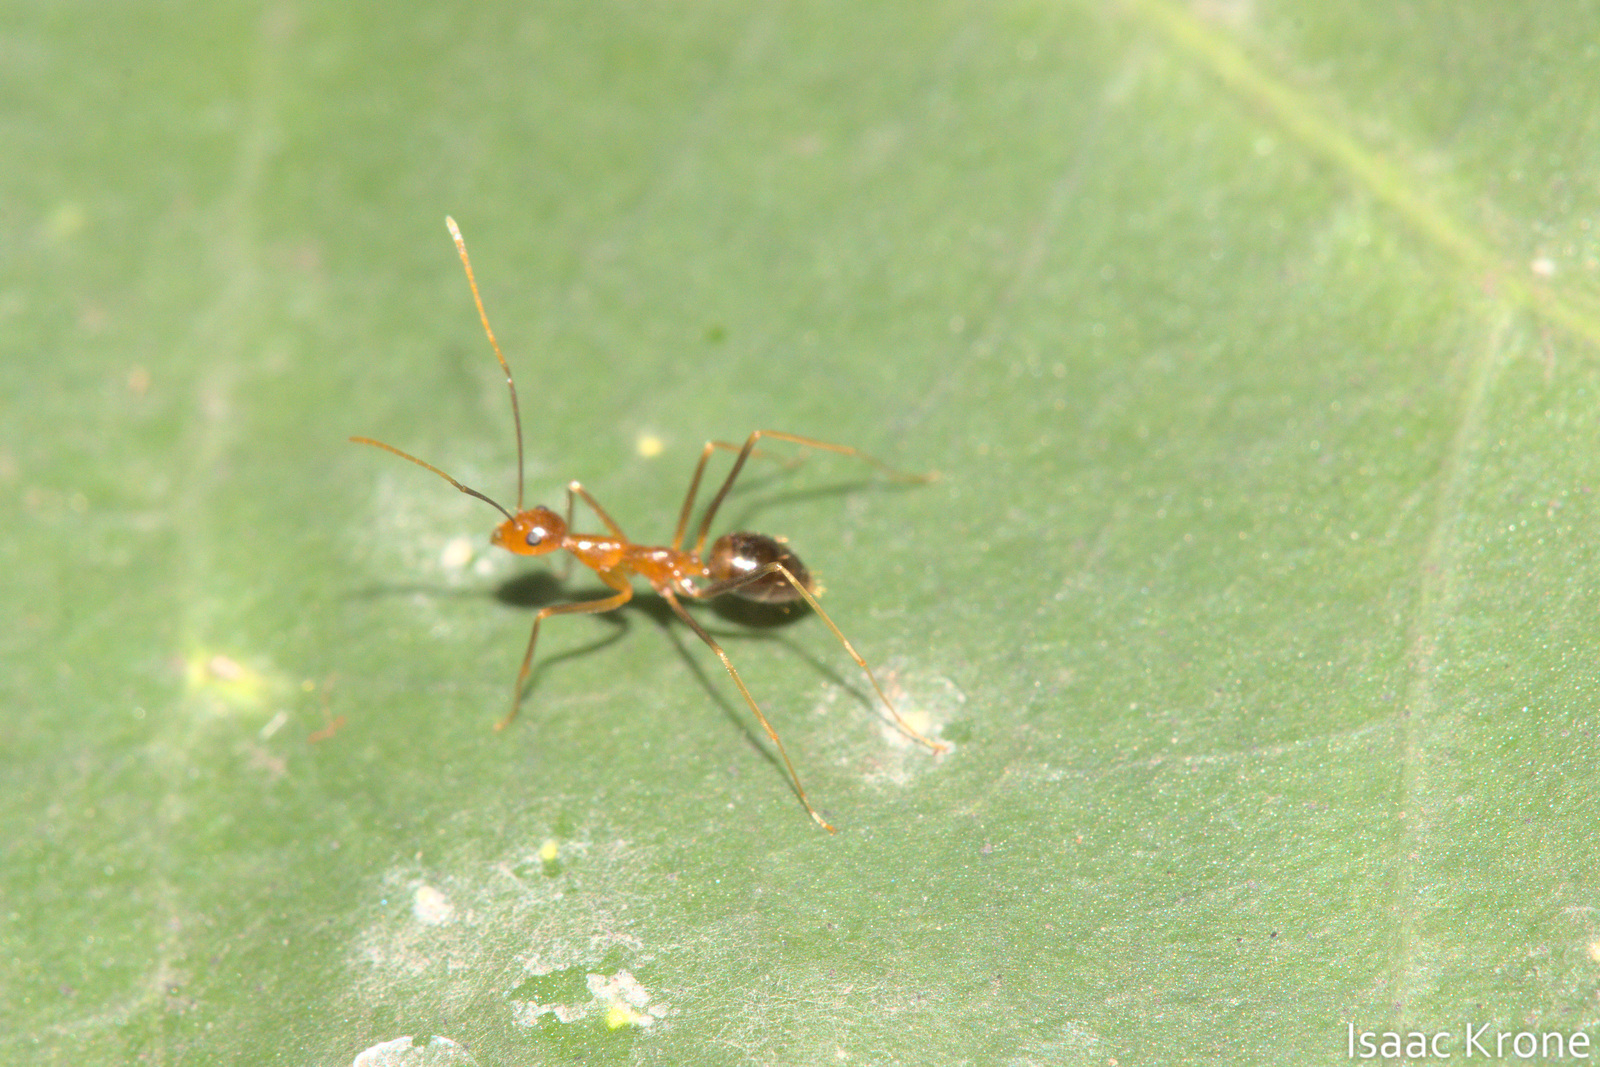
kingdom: Animalia
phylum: Arthropoda
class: Insecta
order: Hymenoptera
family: Formicidae
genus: Anoplolepis
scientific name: Anoplolepis gracilipes
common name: Ant
